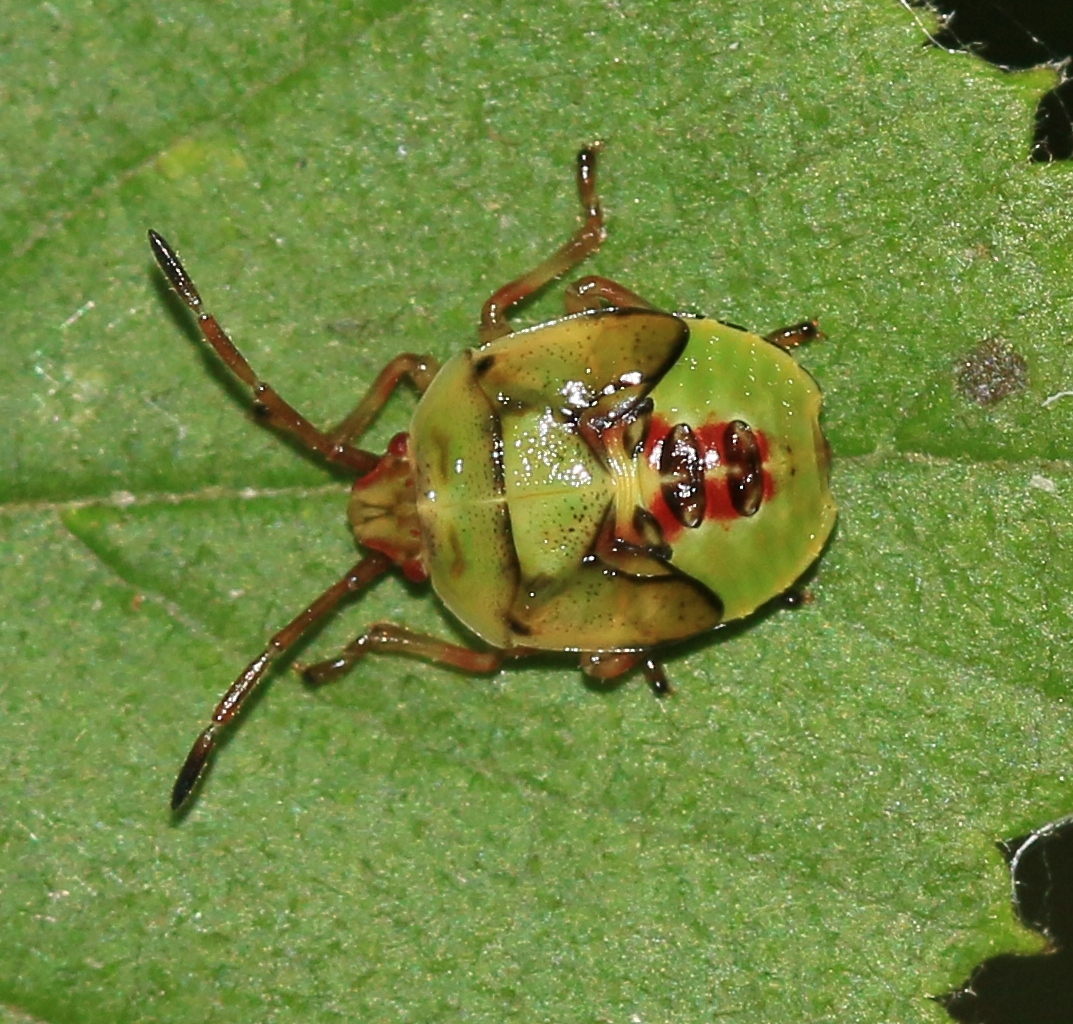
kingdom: Animalia
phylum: Arthropoda
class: Insecta
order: Hemiptera
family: Acanthosomatidae
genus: Elasmostethus
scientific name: Elasmostethus interstinctus
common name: Birch shieldbug
